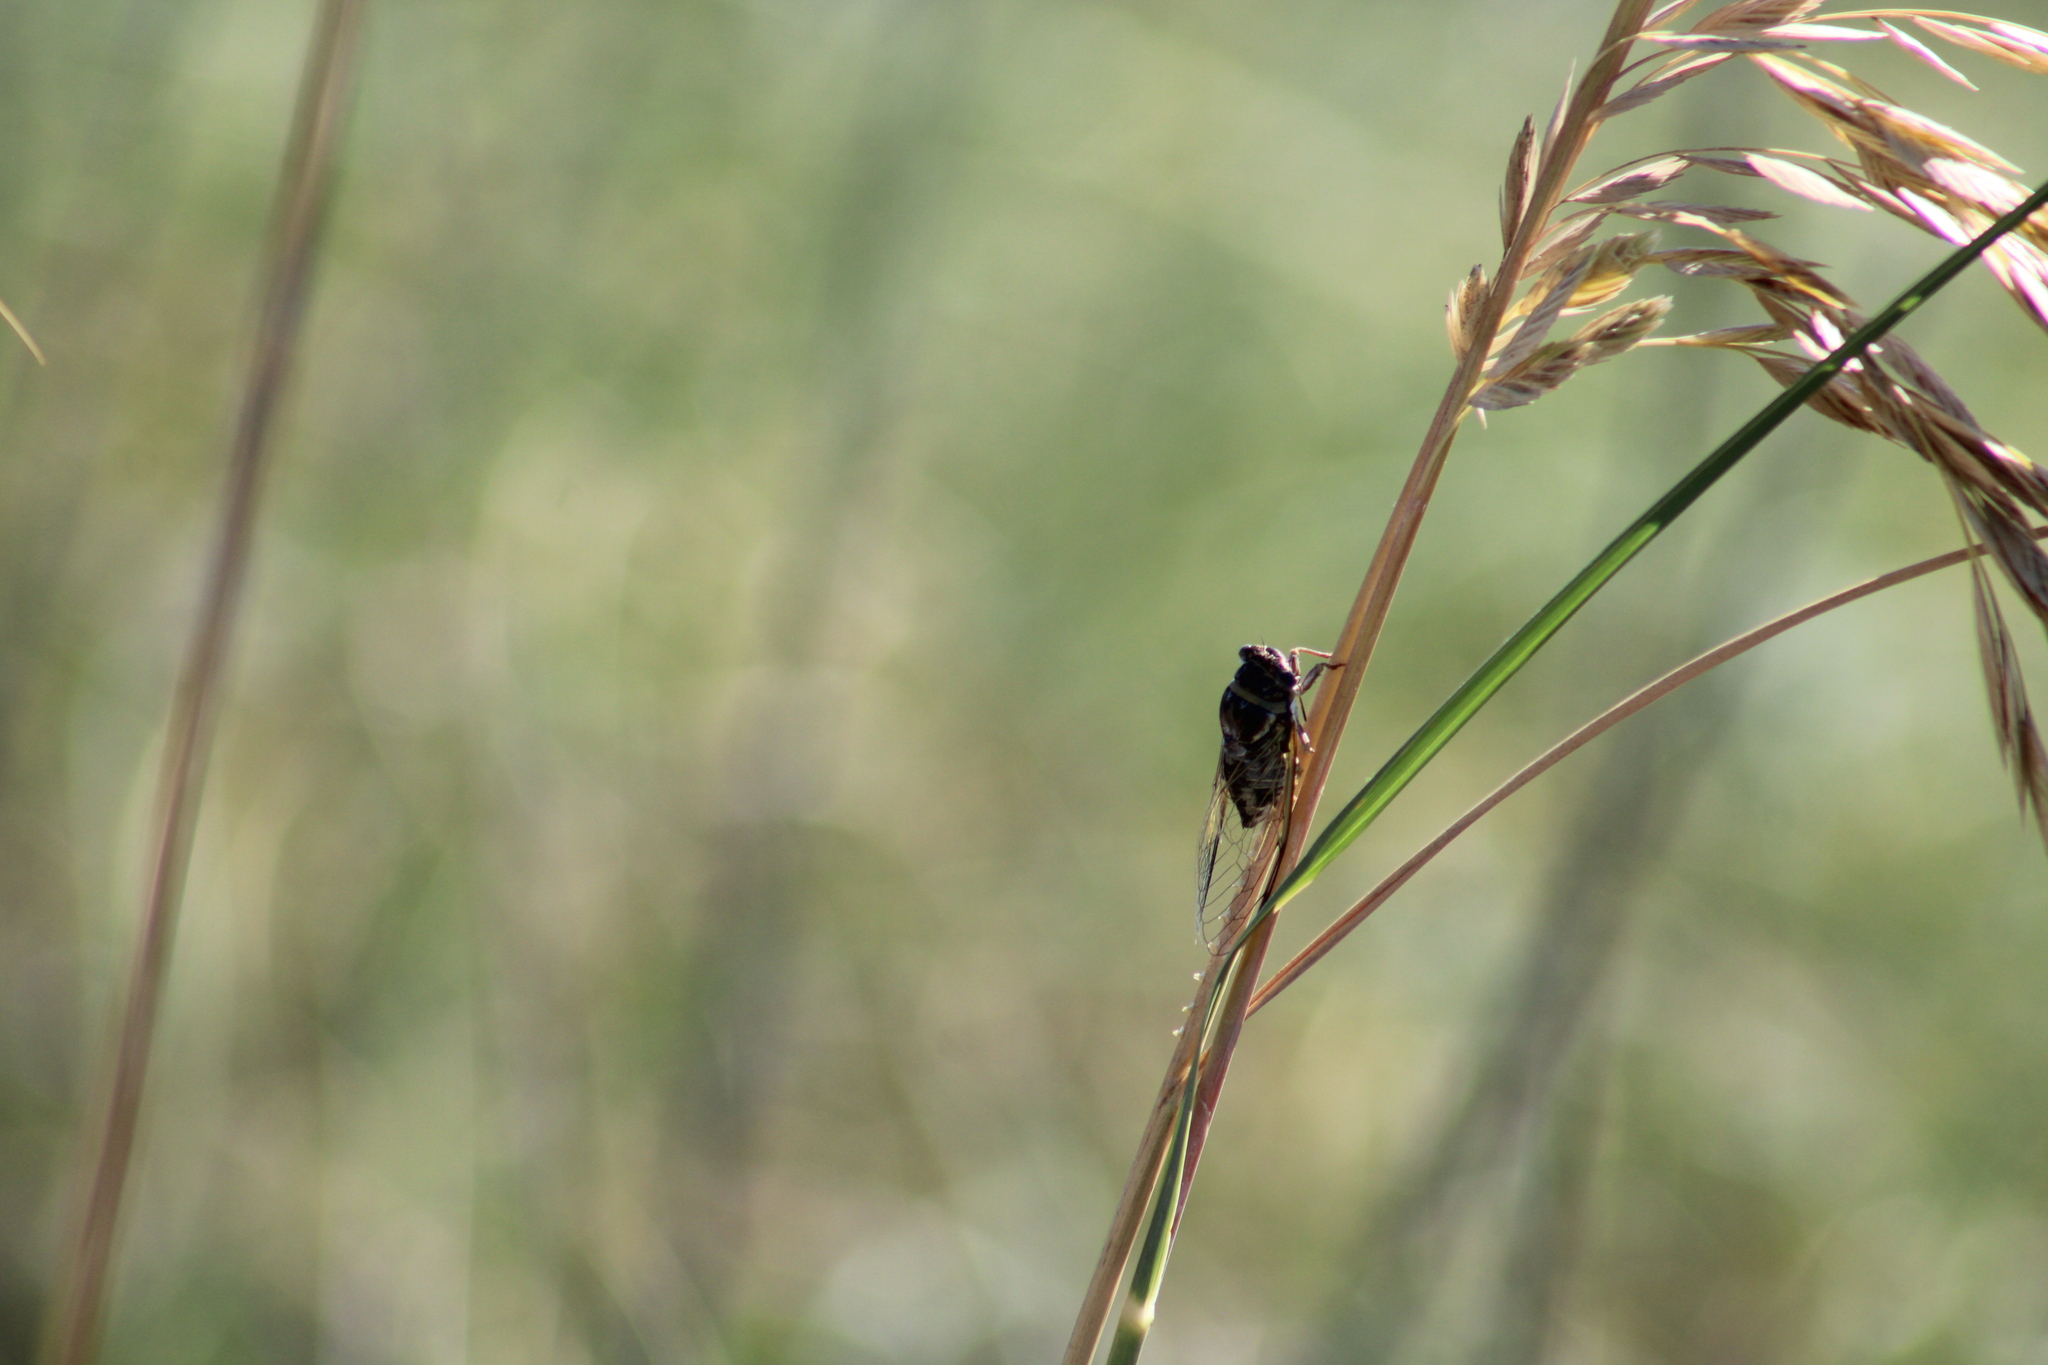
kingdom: Animalia
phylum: Arthropoda
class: Insecta
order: Hemiptera
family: Cicadidae
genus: Diceroprocta
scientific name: Diceroprocta viridifascia
